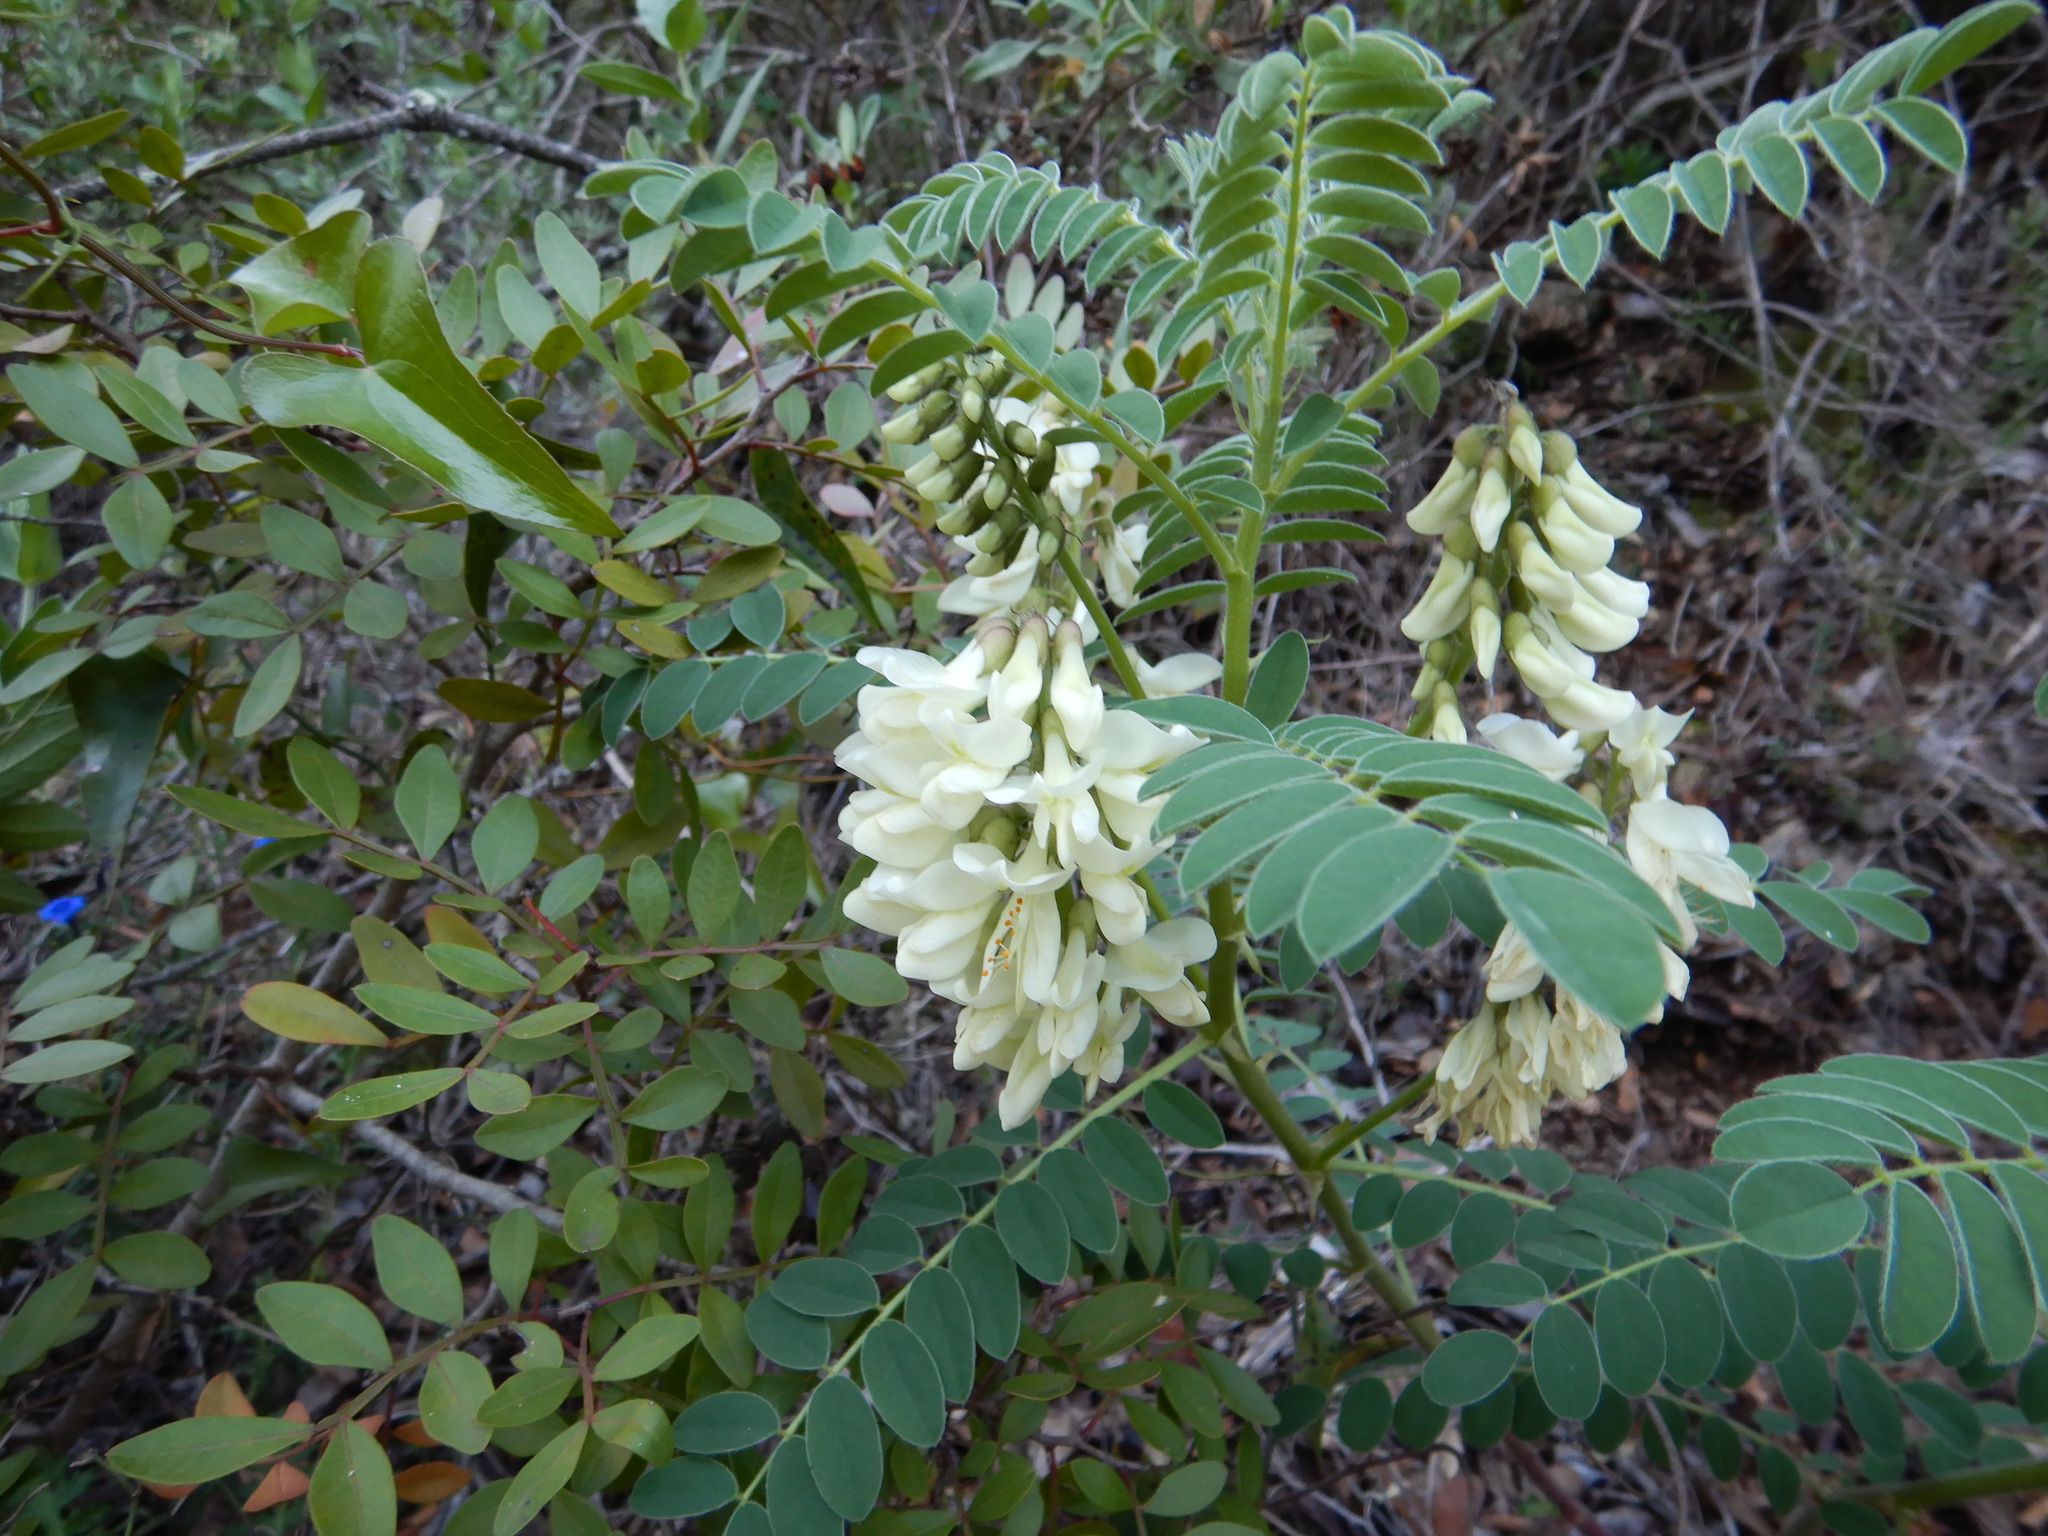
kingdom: Plantae
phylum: Tracheophyta
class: Magnoliopsida
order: Fabales
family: Fabaceae
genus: Erophaca
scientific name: Erophaca baetica
